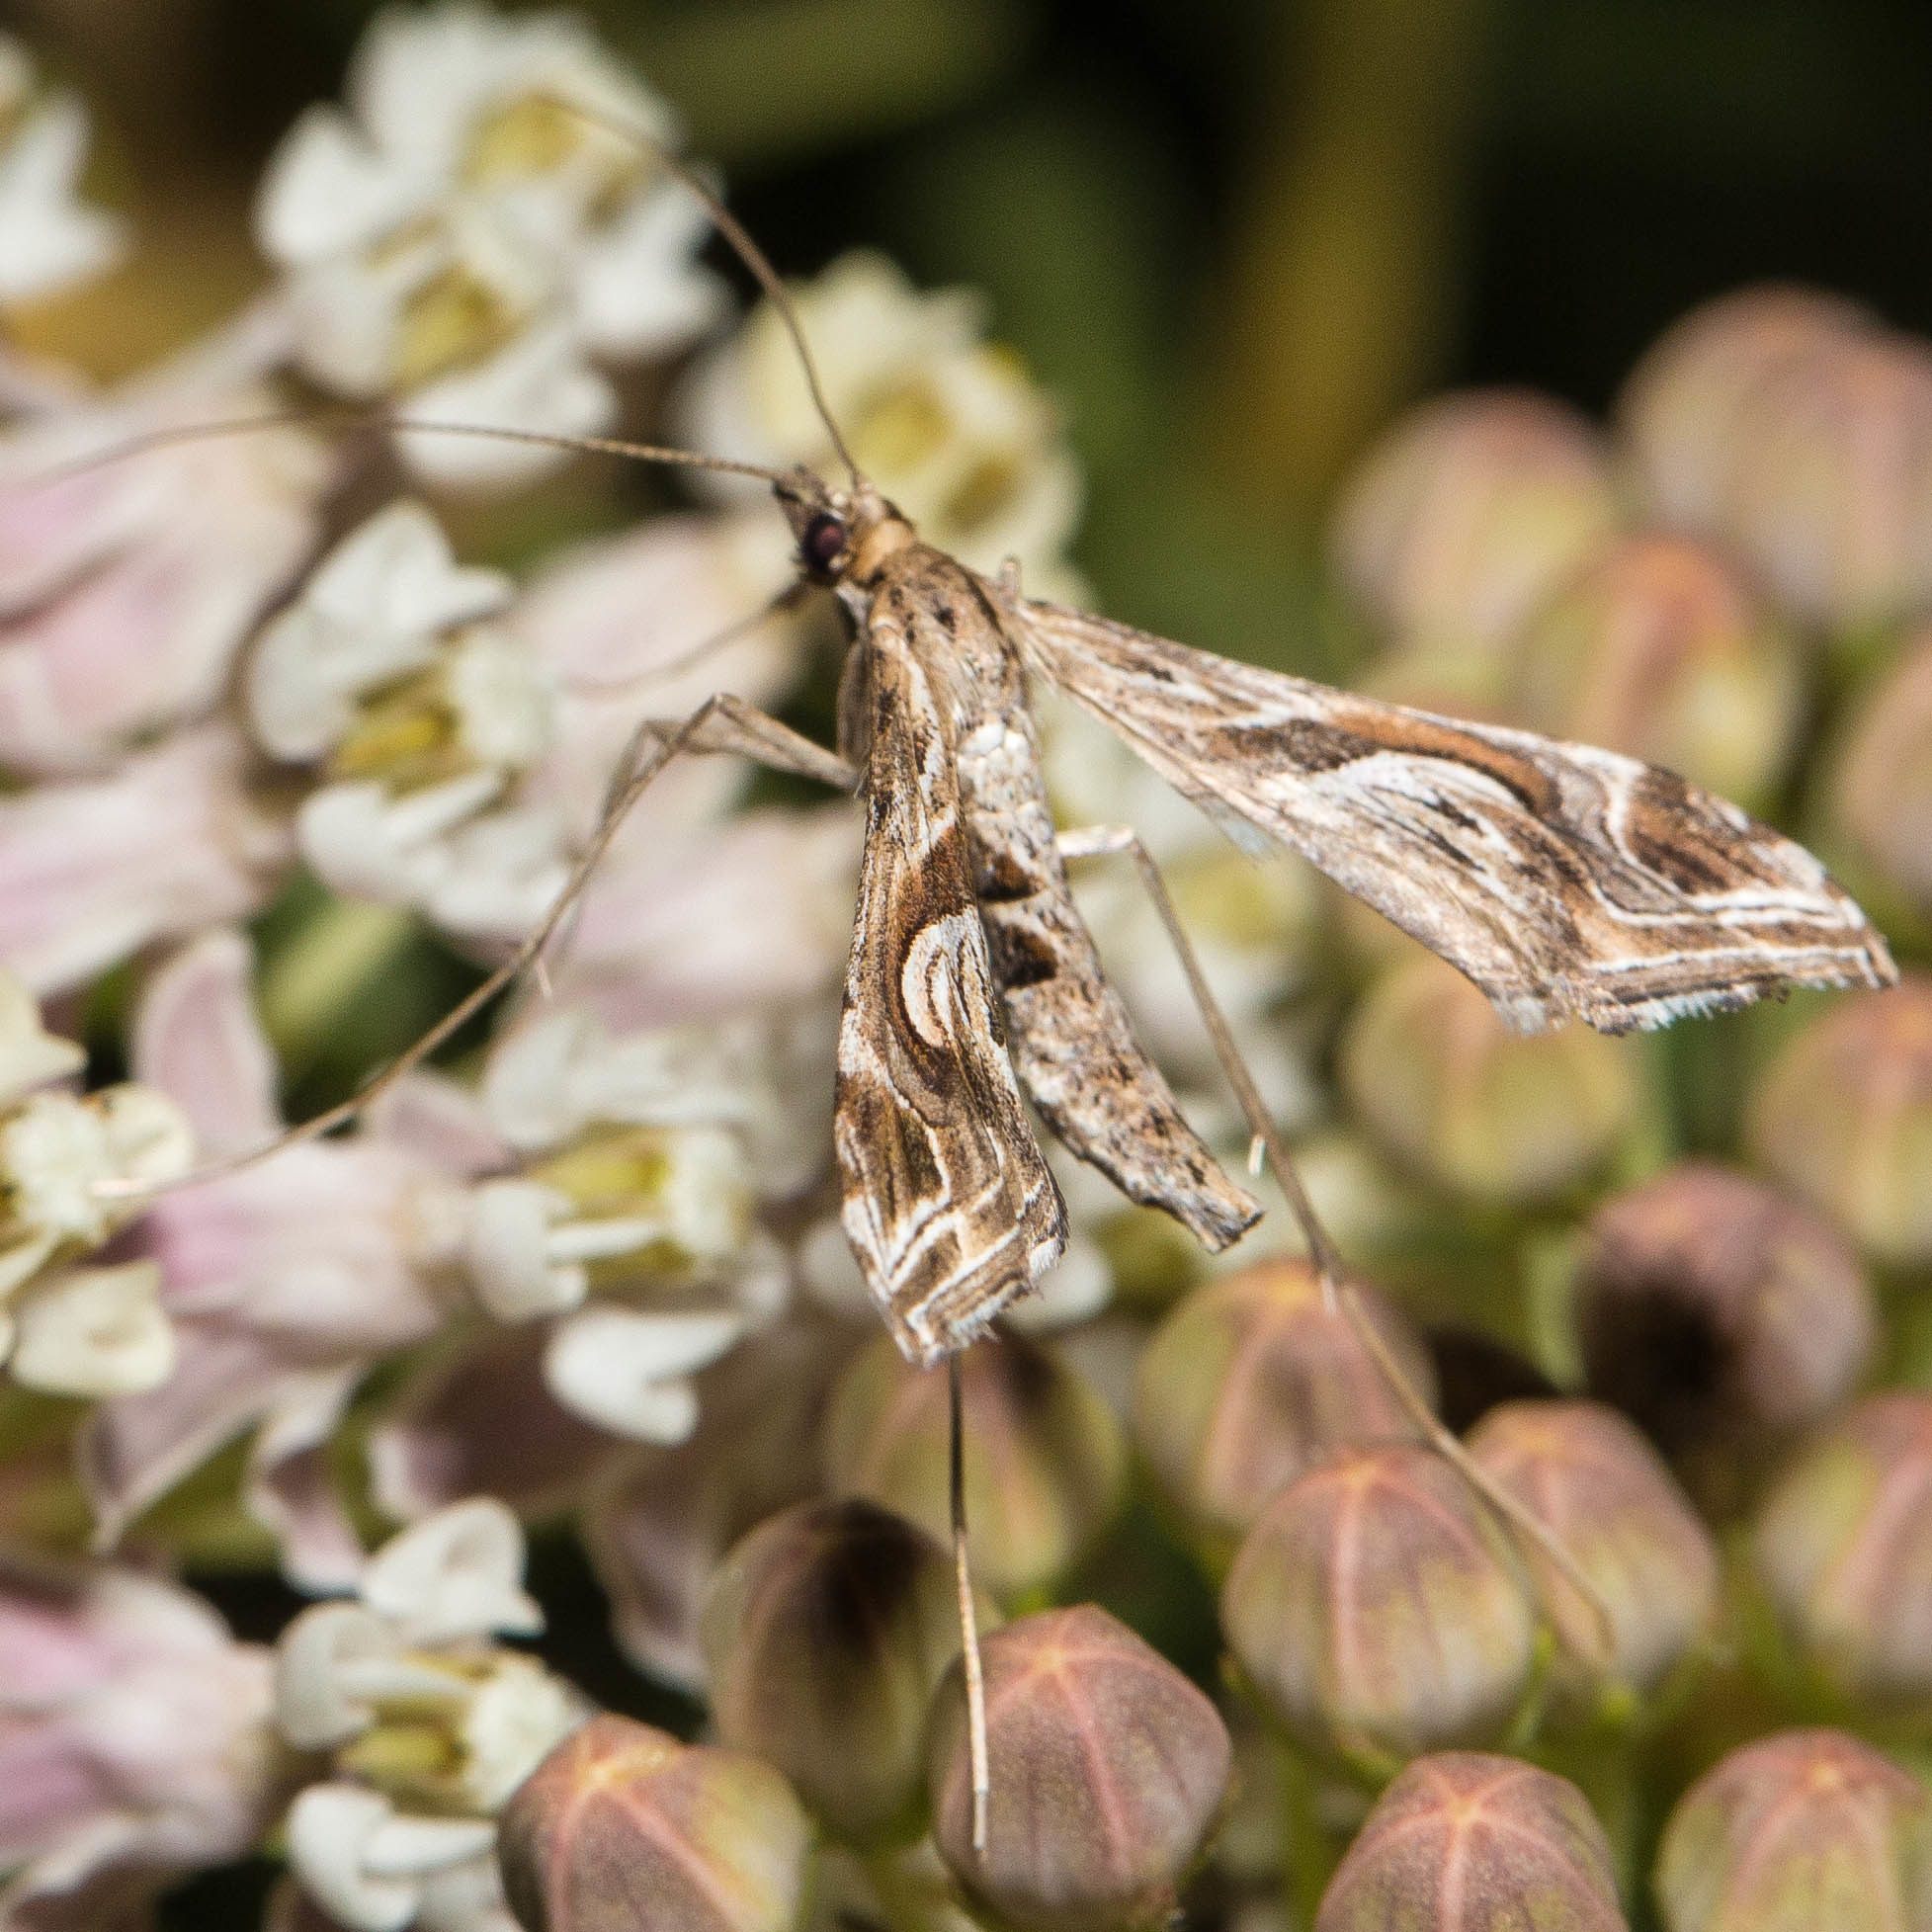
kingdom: Animalia
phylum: Arthropoda
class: Insecta
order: Lepidoptera
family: Crambidae
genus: Lineodes
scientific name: Lineodes integra
